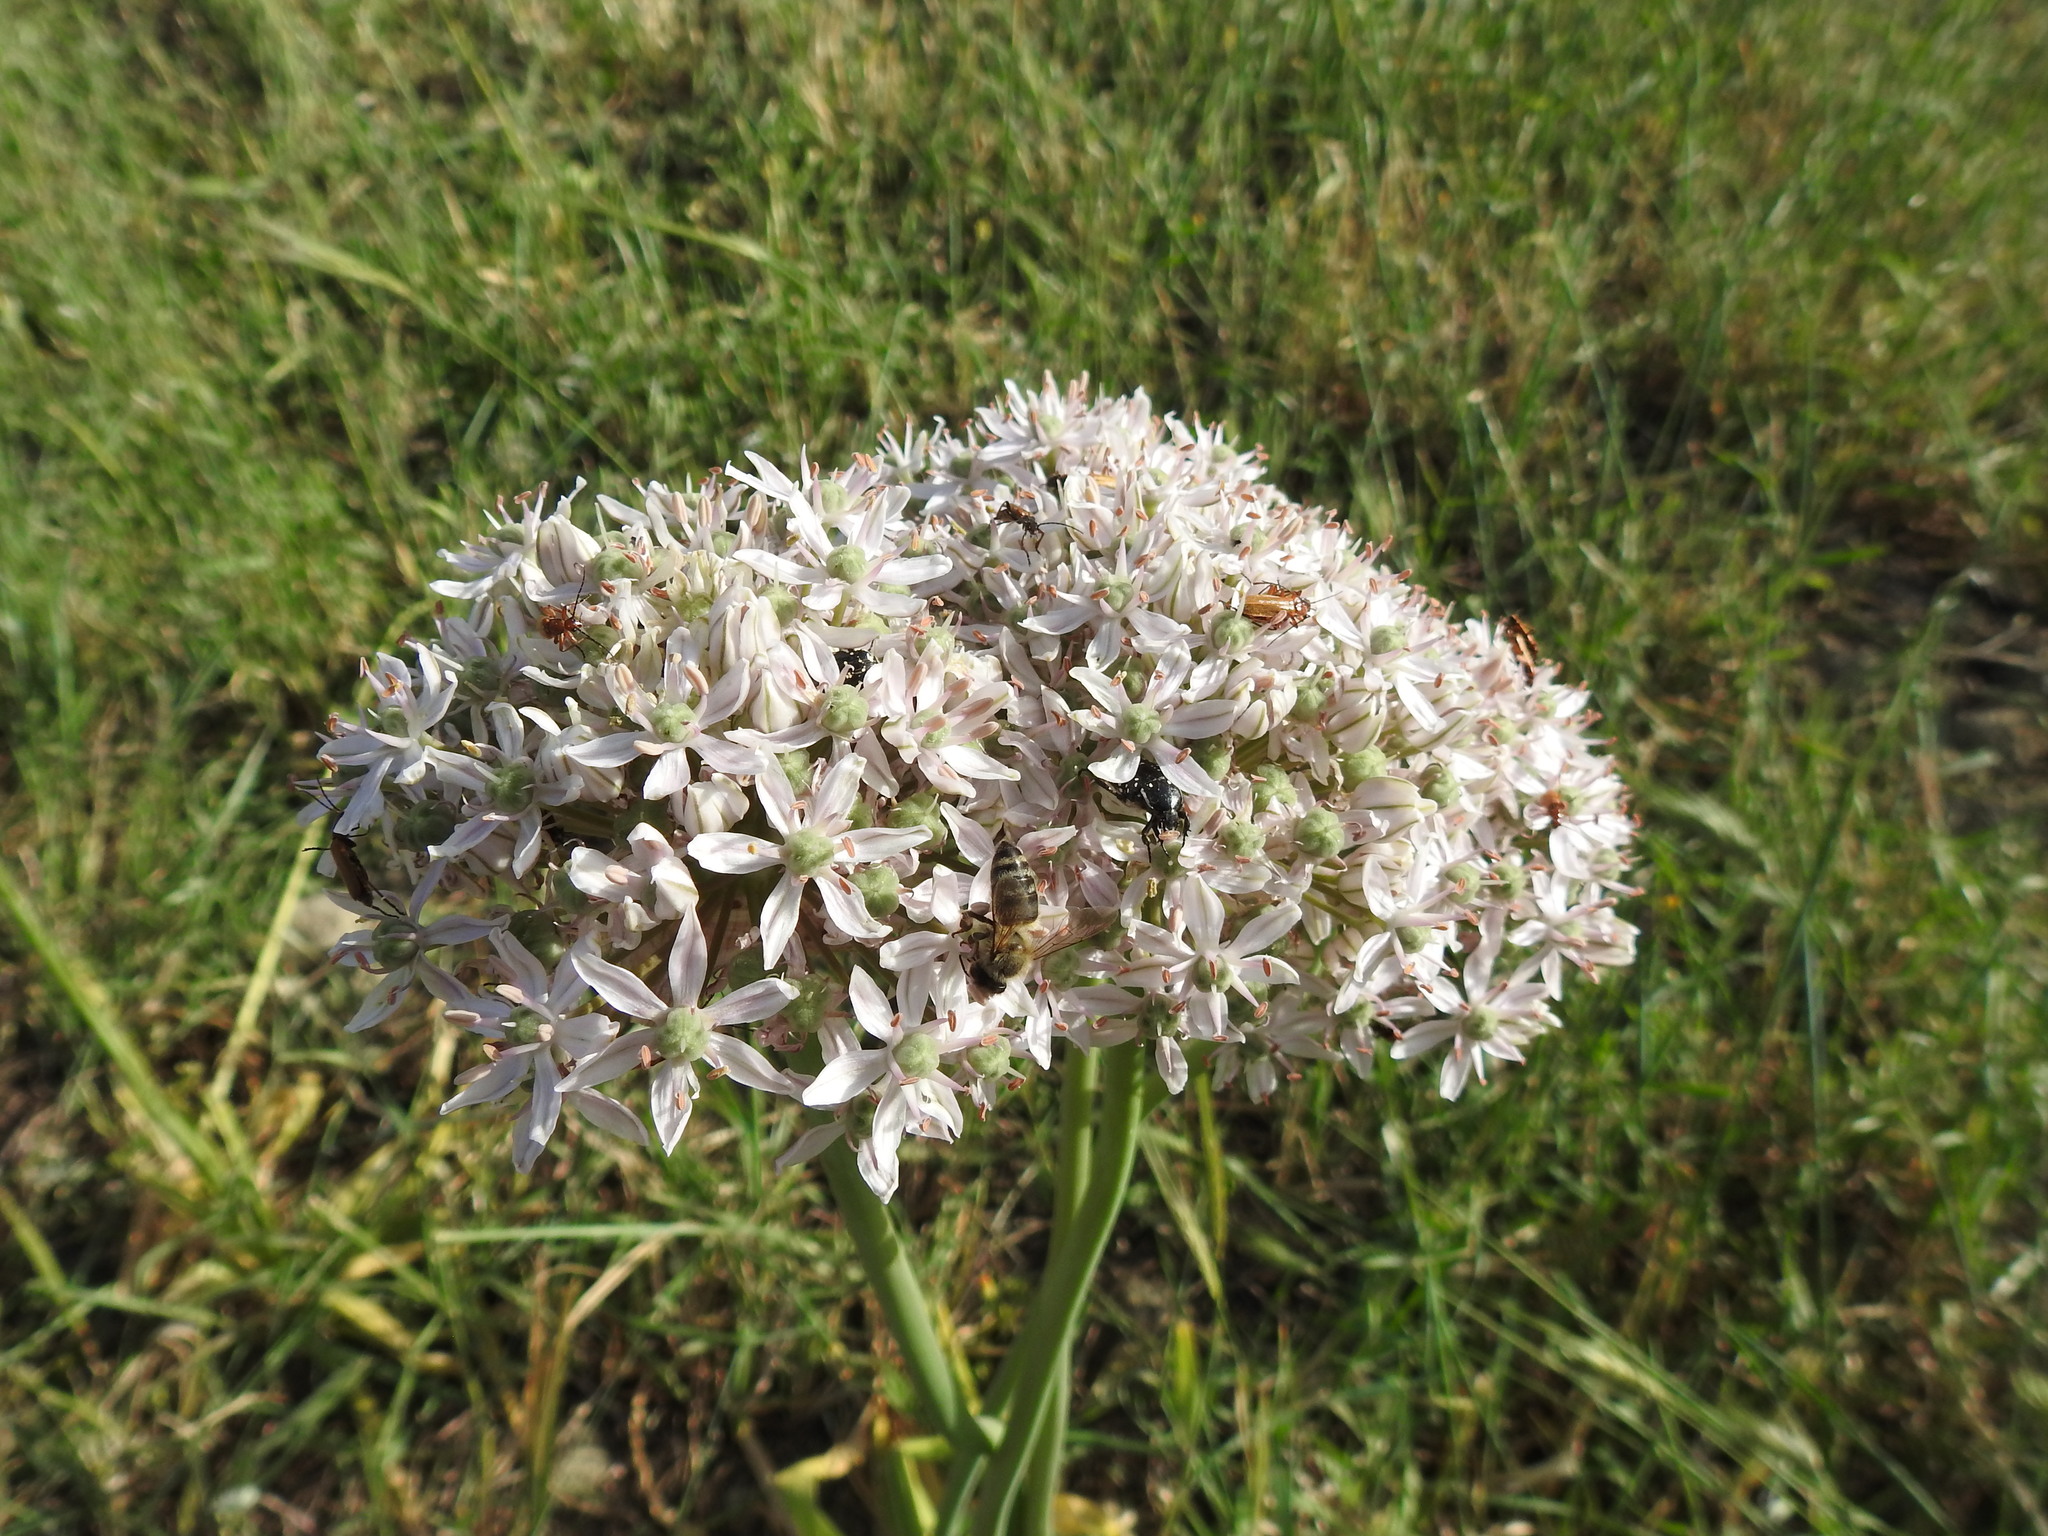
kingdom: Plantae
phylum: Tracheophyta
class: Liliopsida
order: Asparagales
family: Amaryllidaceae
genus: Allium
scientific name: Allium nigrum
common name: Black garlic
